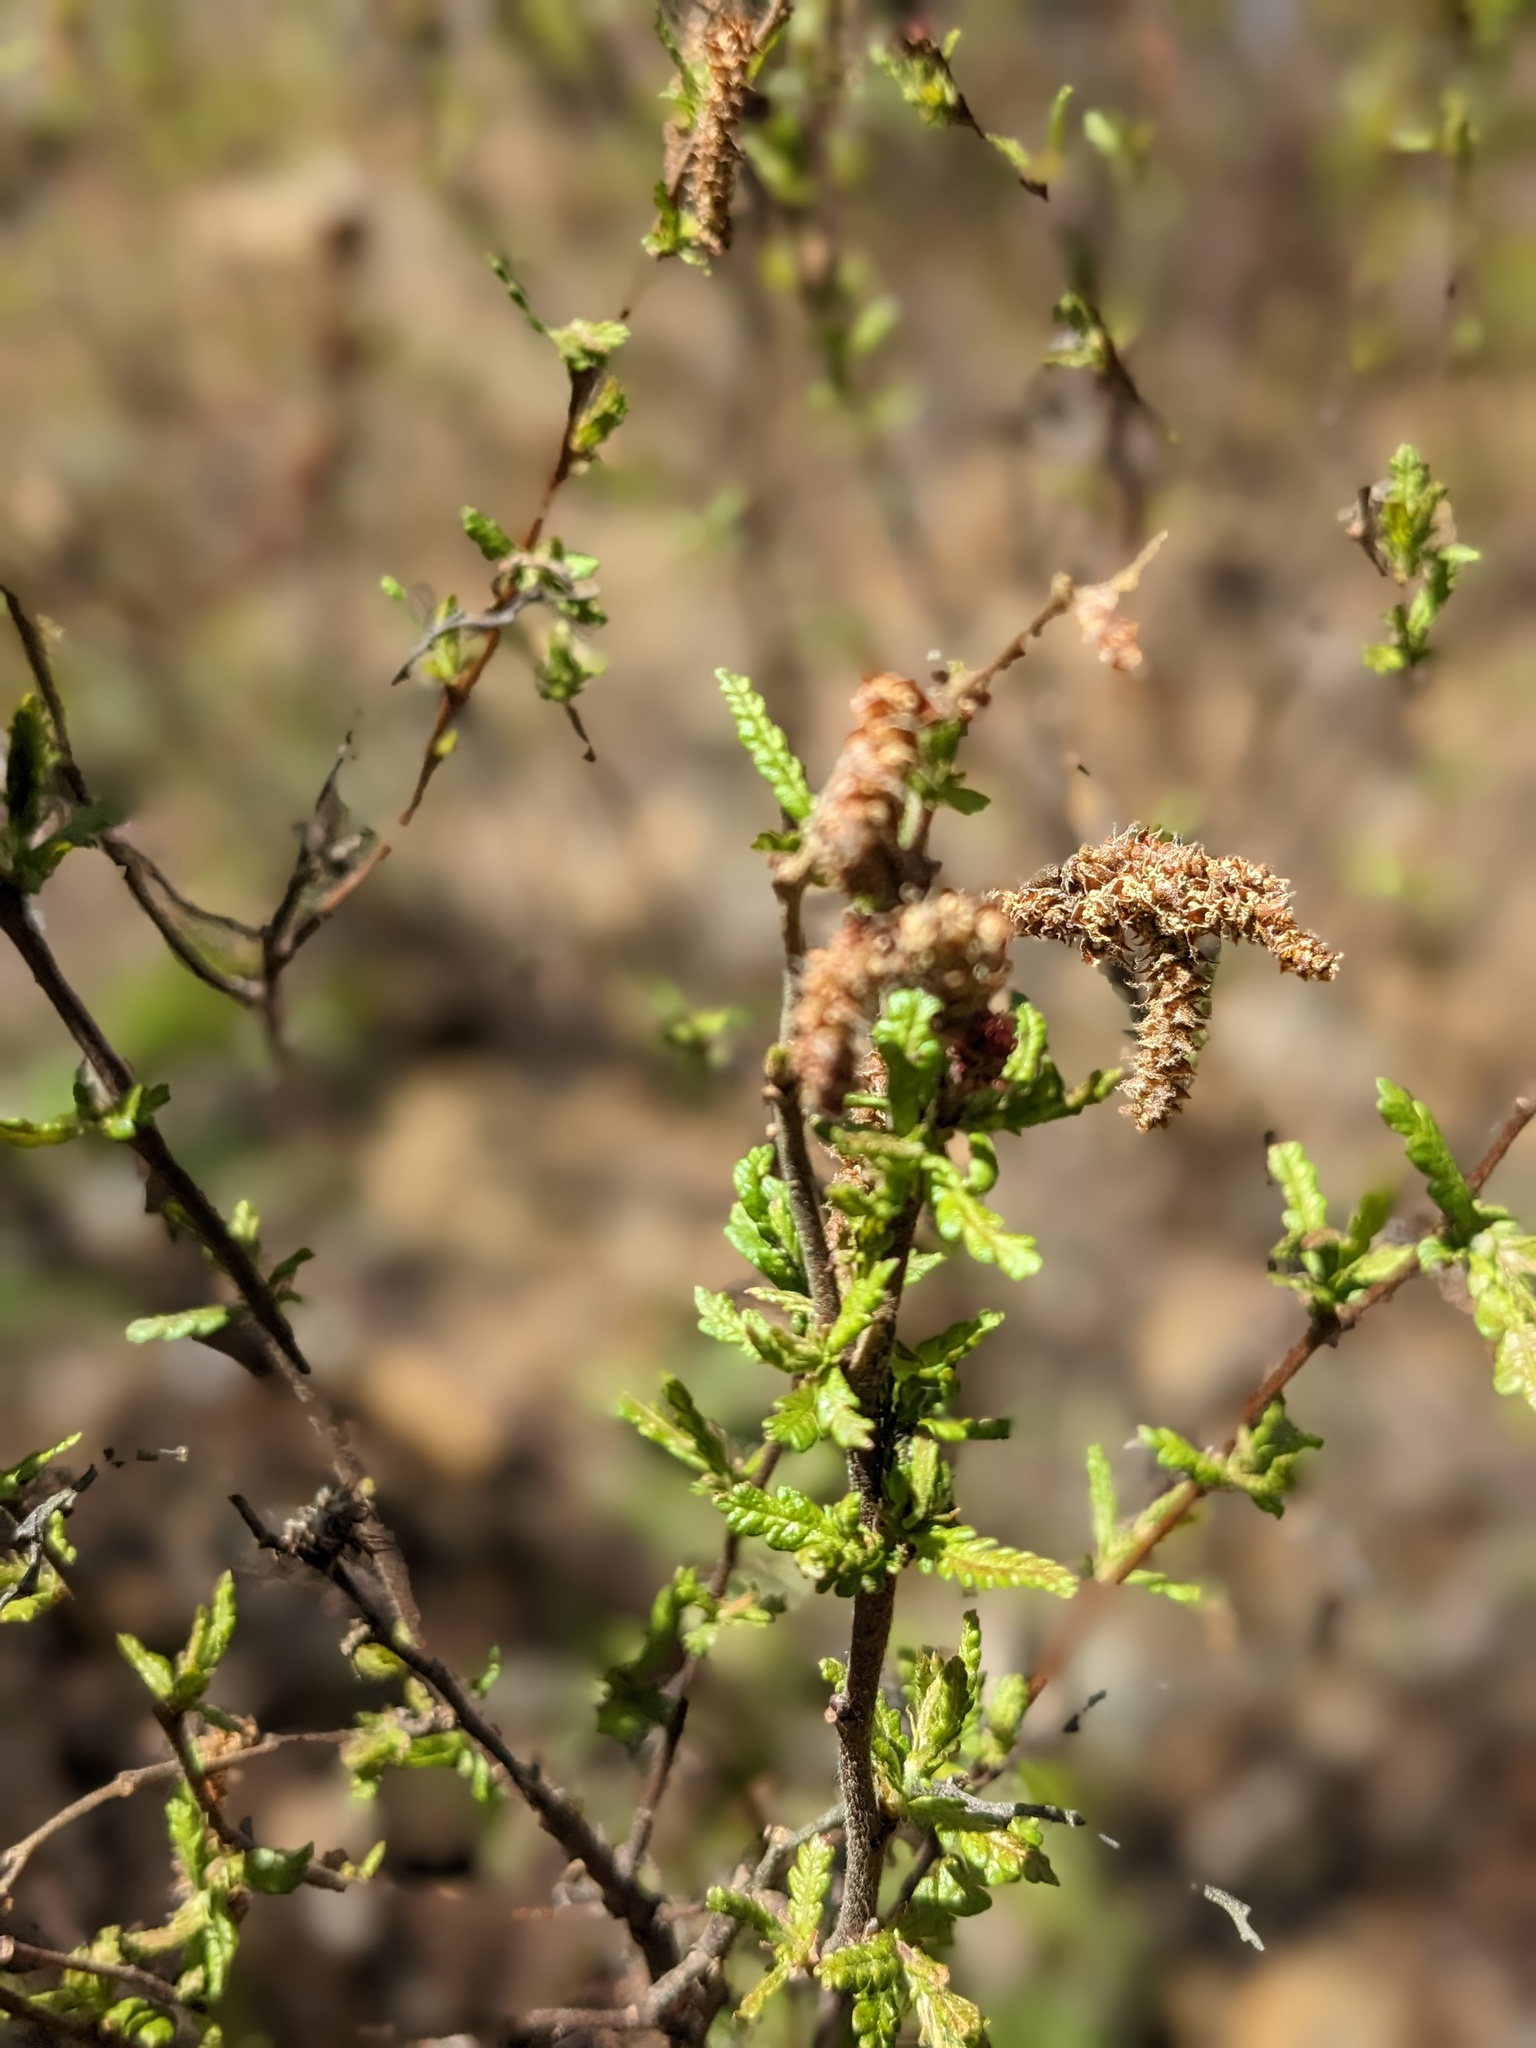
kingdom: Plantae
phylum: Tracheophyta
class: Magnoliopsida
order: Fagales
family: Myricaceae
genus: Comptonia
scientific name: Comptonia peregrina
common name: Sweet-fern
